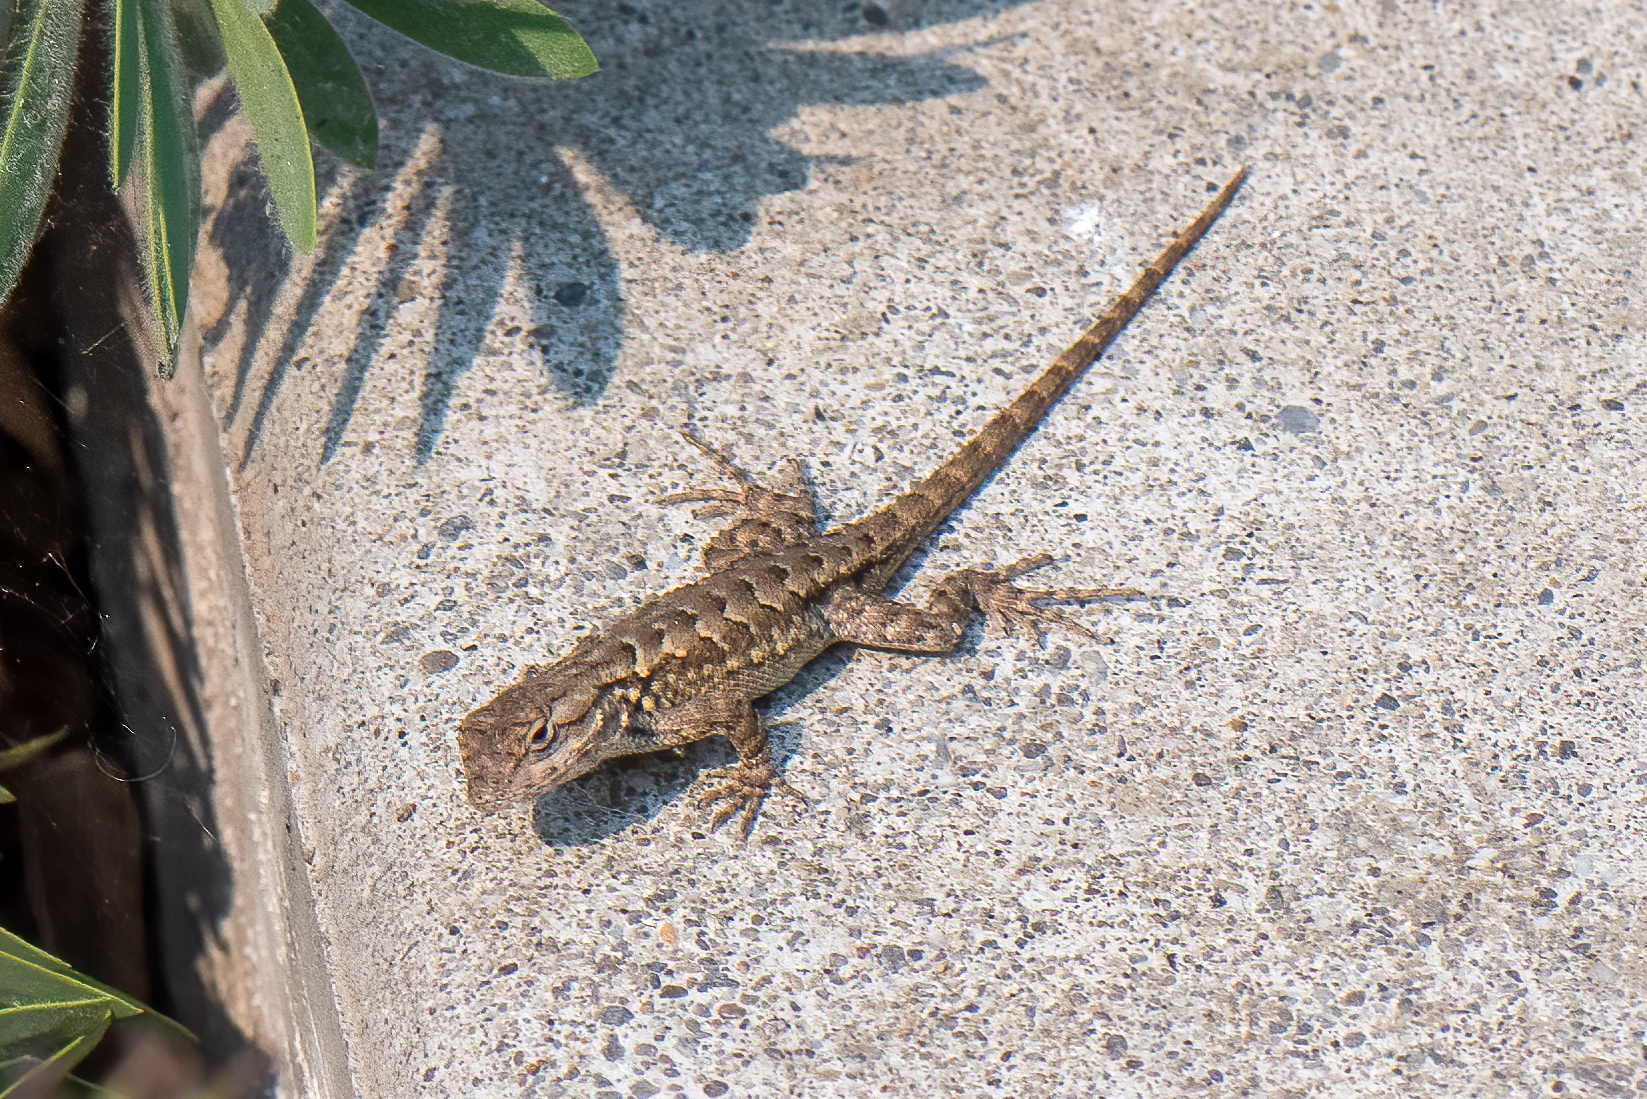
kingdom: Animalia
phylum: Chordata
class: Squamata
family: Phrynosomatidae
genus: Sceloporus
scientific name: Sceloporus occidentalis
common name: Western fence lizard
